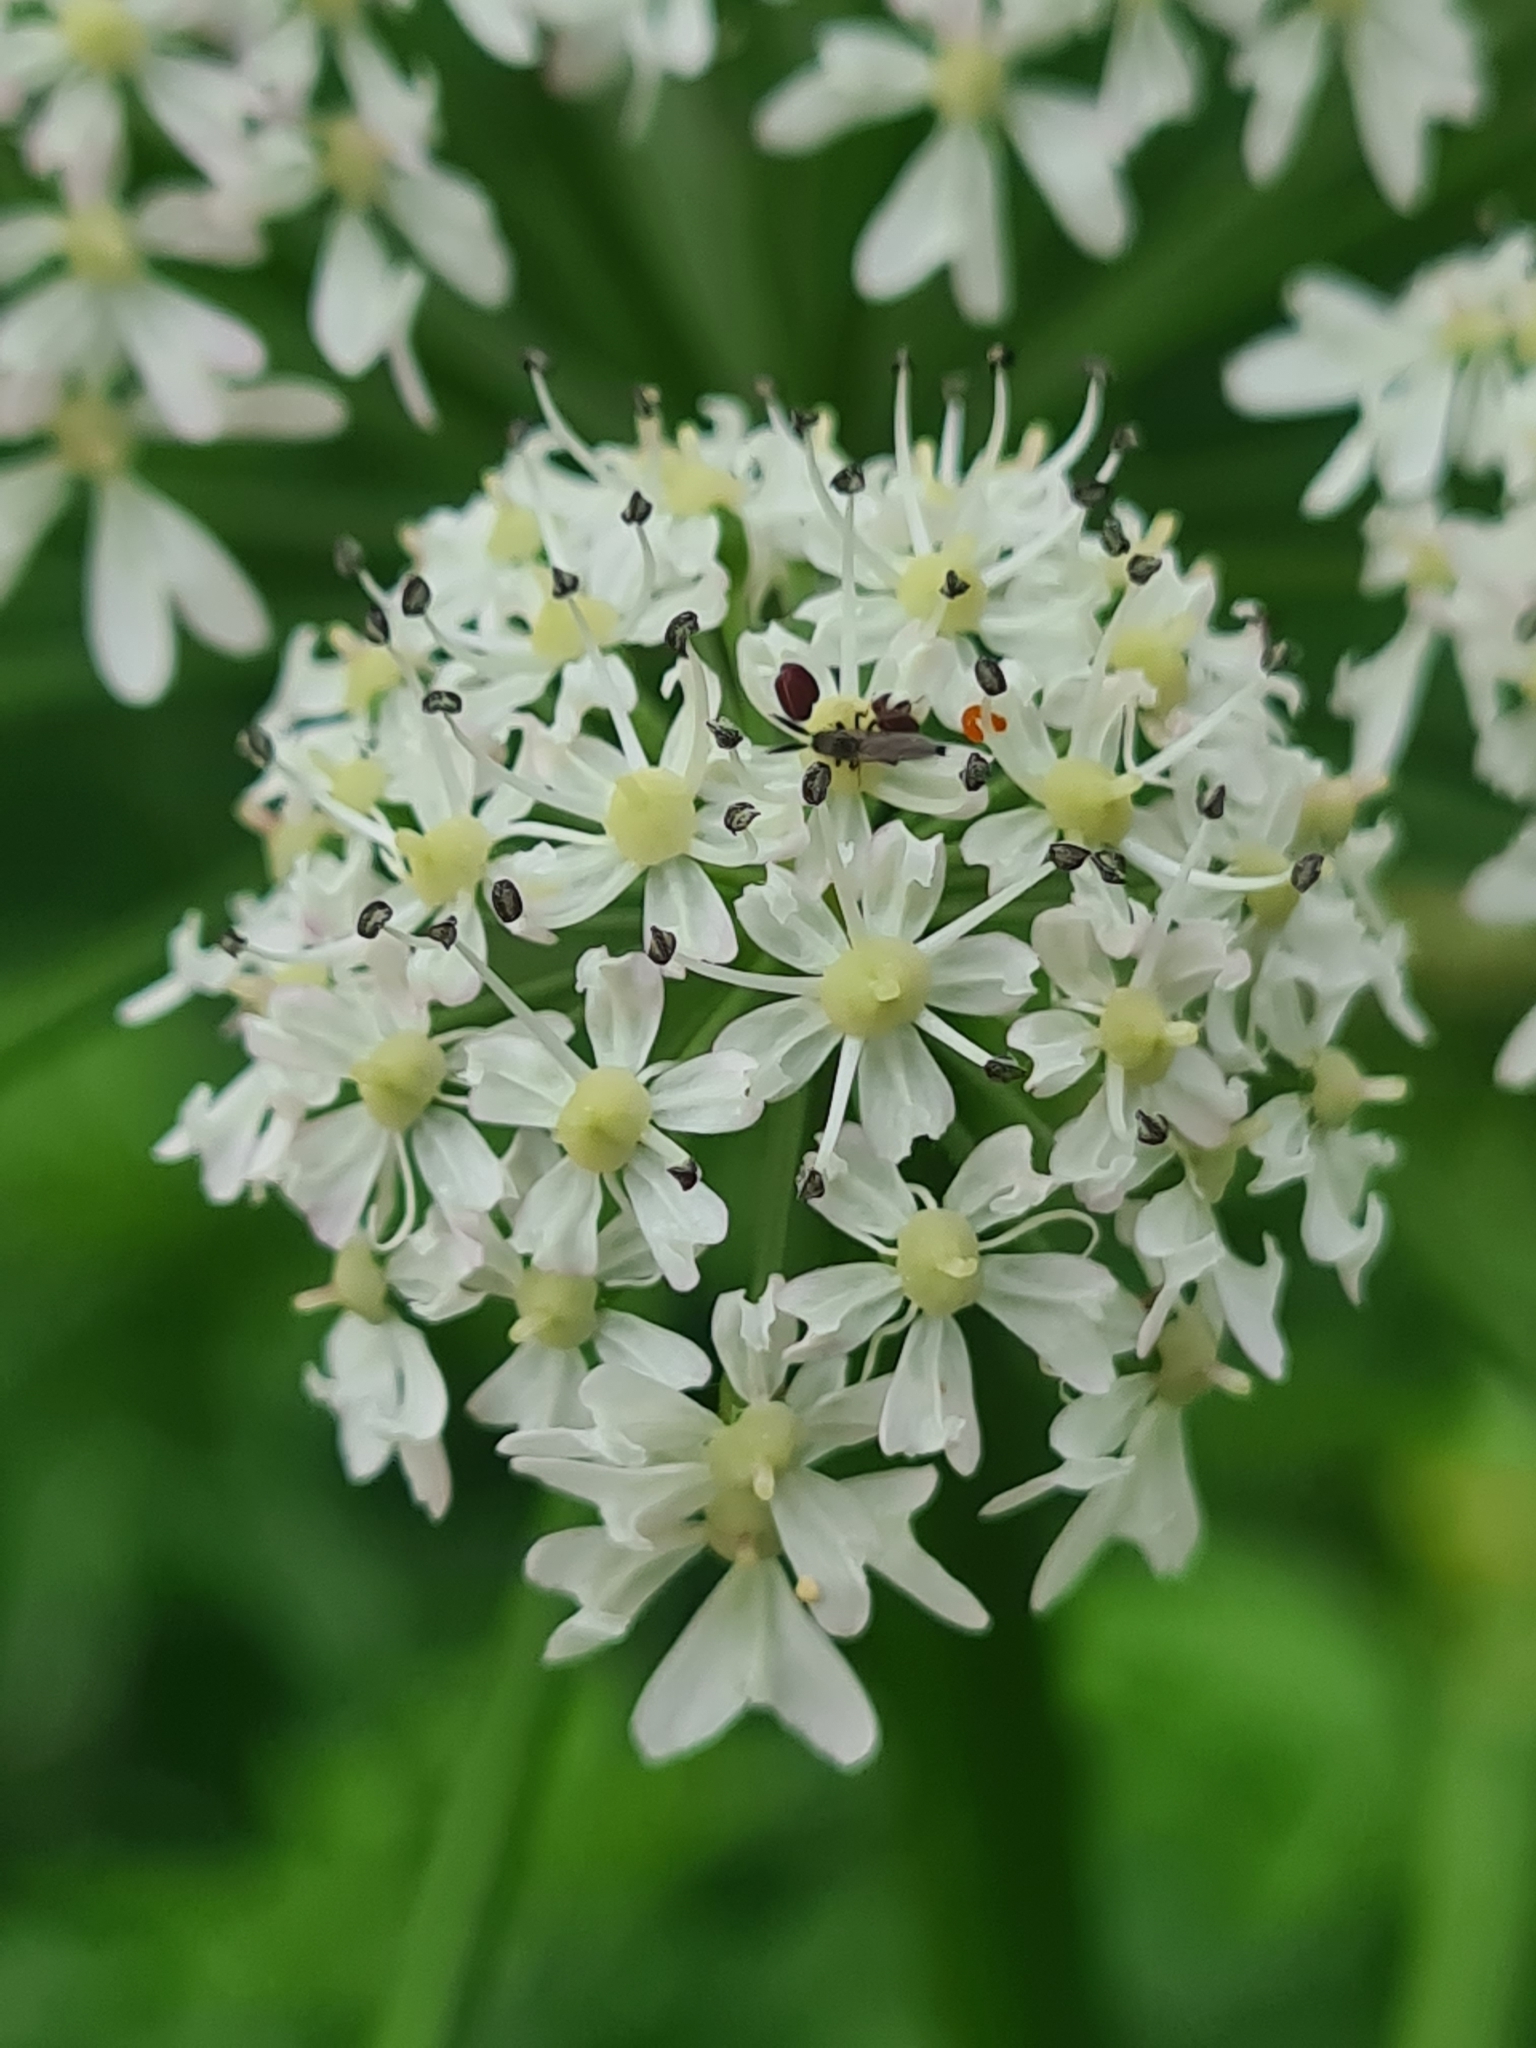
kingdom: Plantae
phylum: Tracheophyta
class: Magnoliopsida
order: Apiales
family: Apiaceae
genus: Heracleum
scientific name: Heracleum sphondylium
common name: Hogweed
